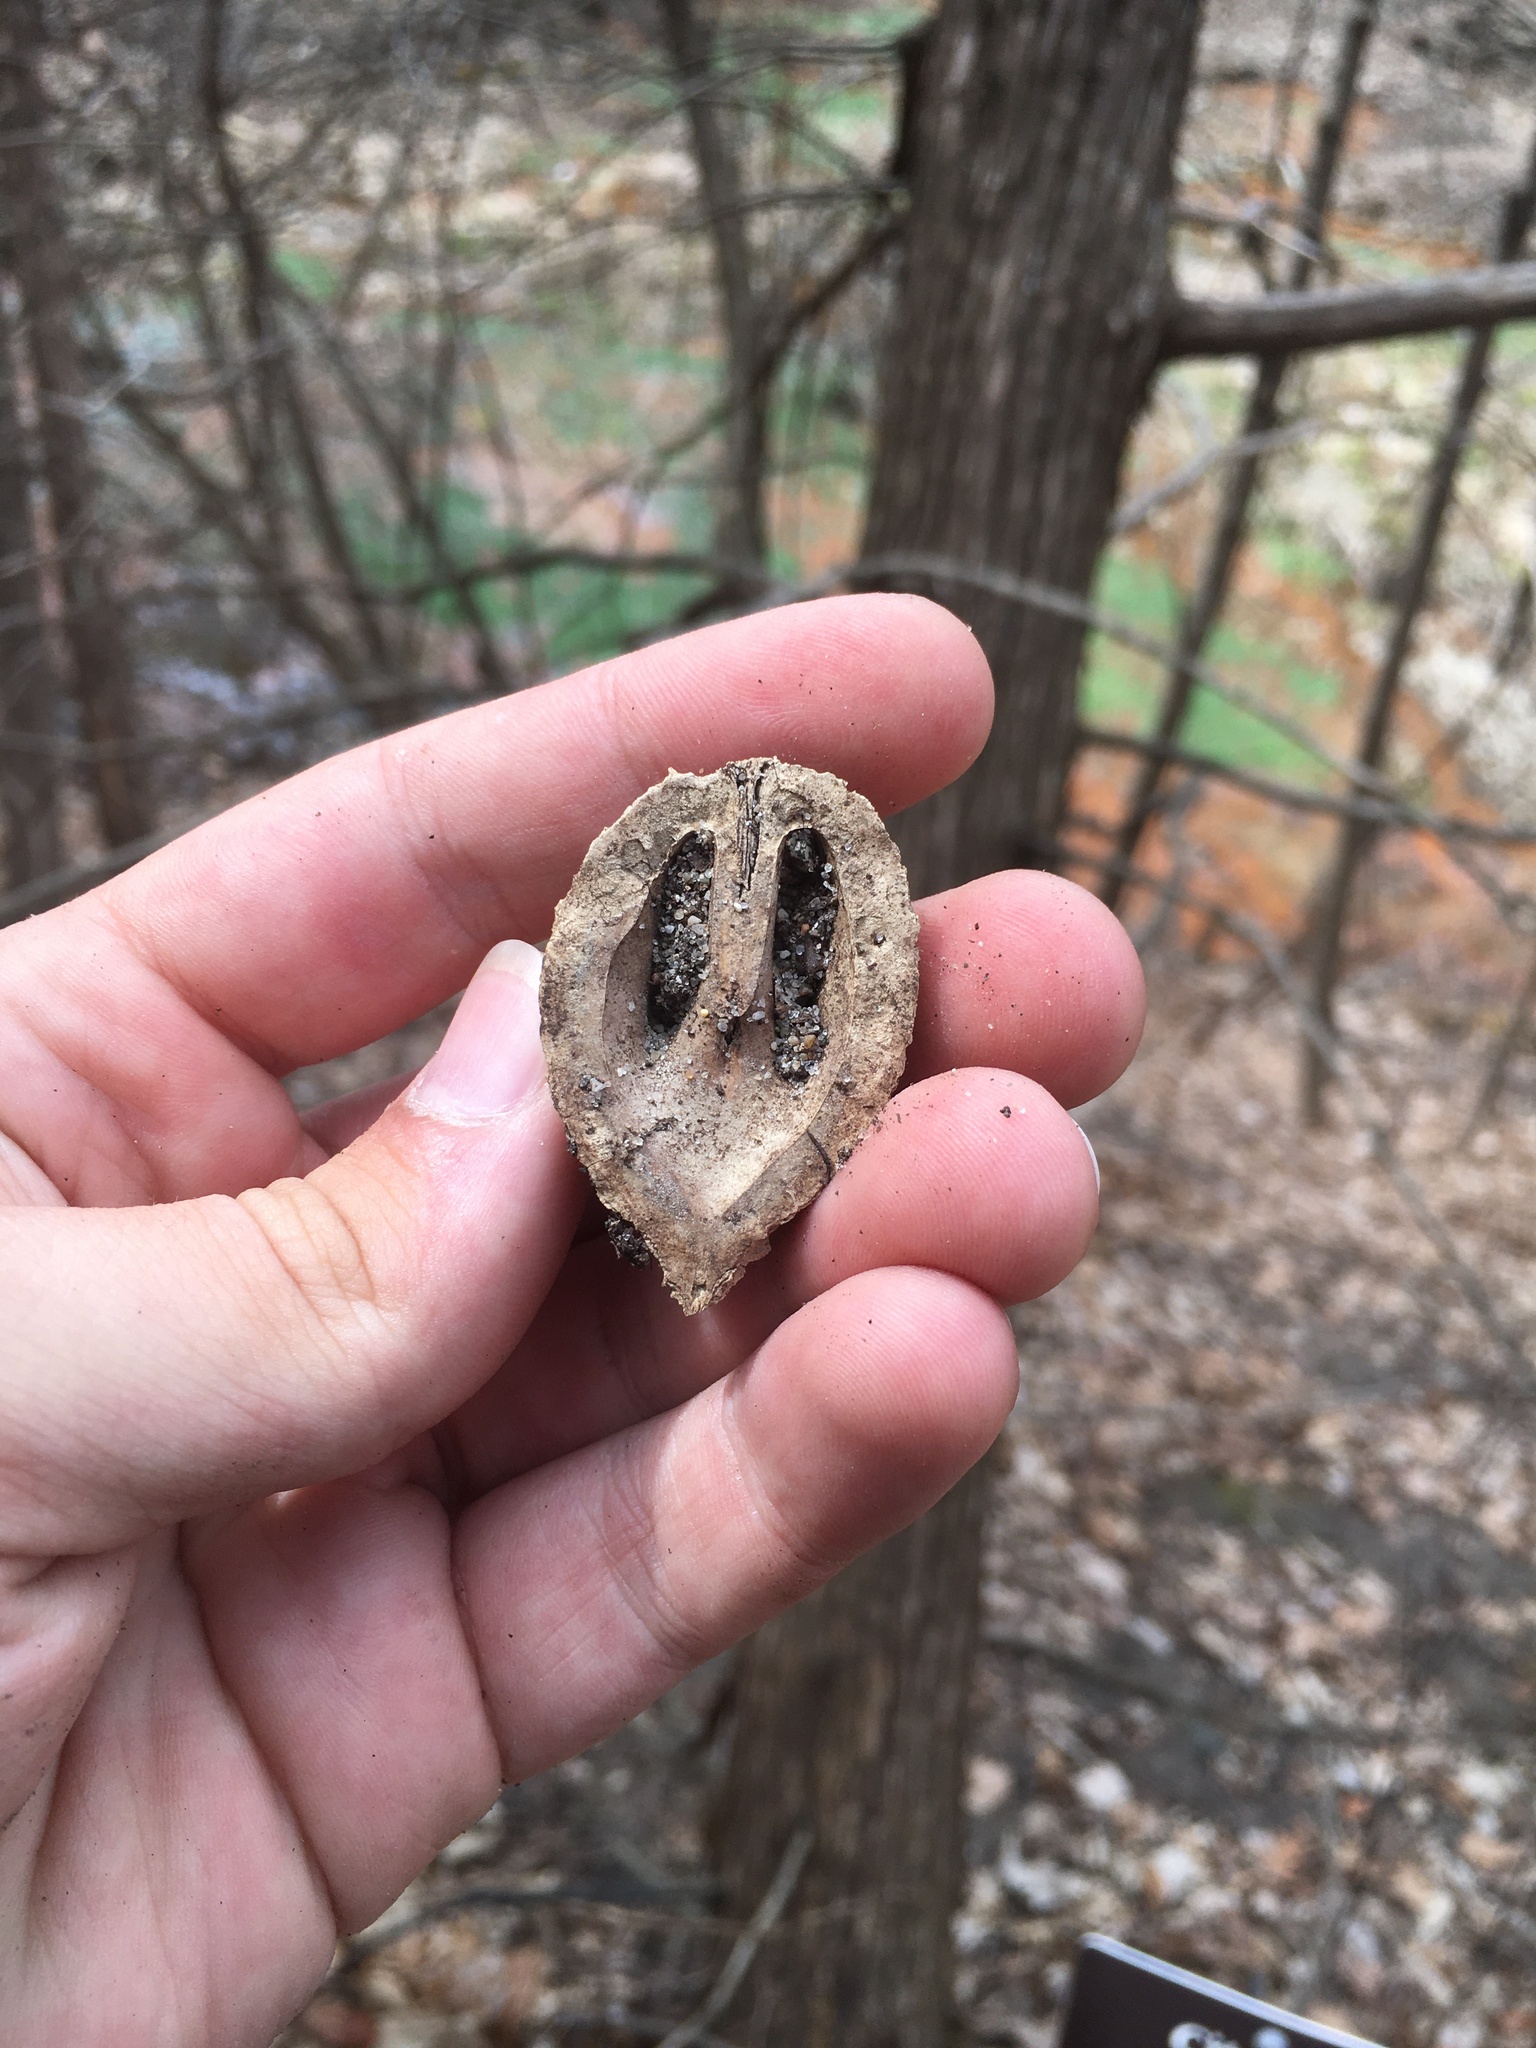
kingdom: Plantae
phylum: Tracheophyta
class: Magnoliopsida
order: Fagales
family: Juglandaceae
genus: Juglans
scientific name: Juglans cinerea
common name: Butternut
